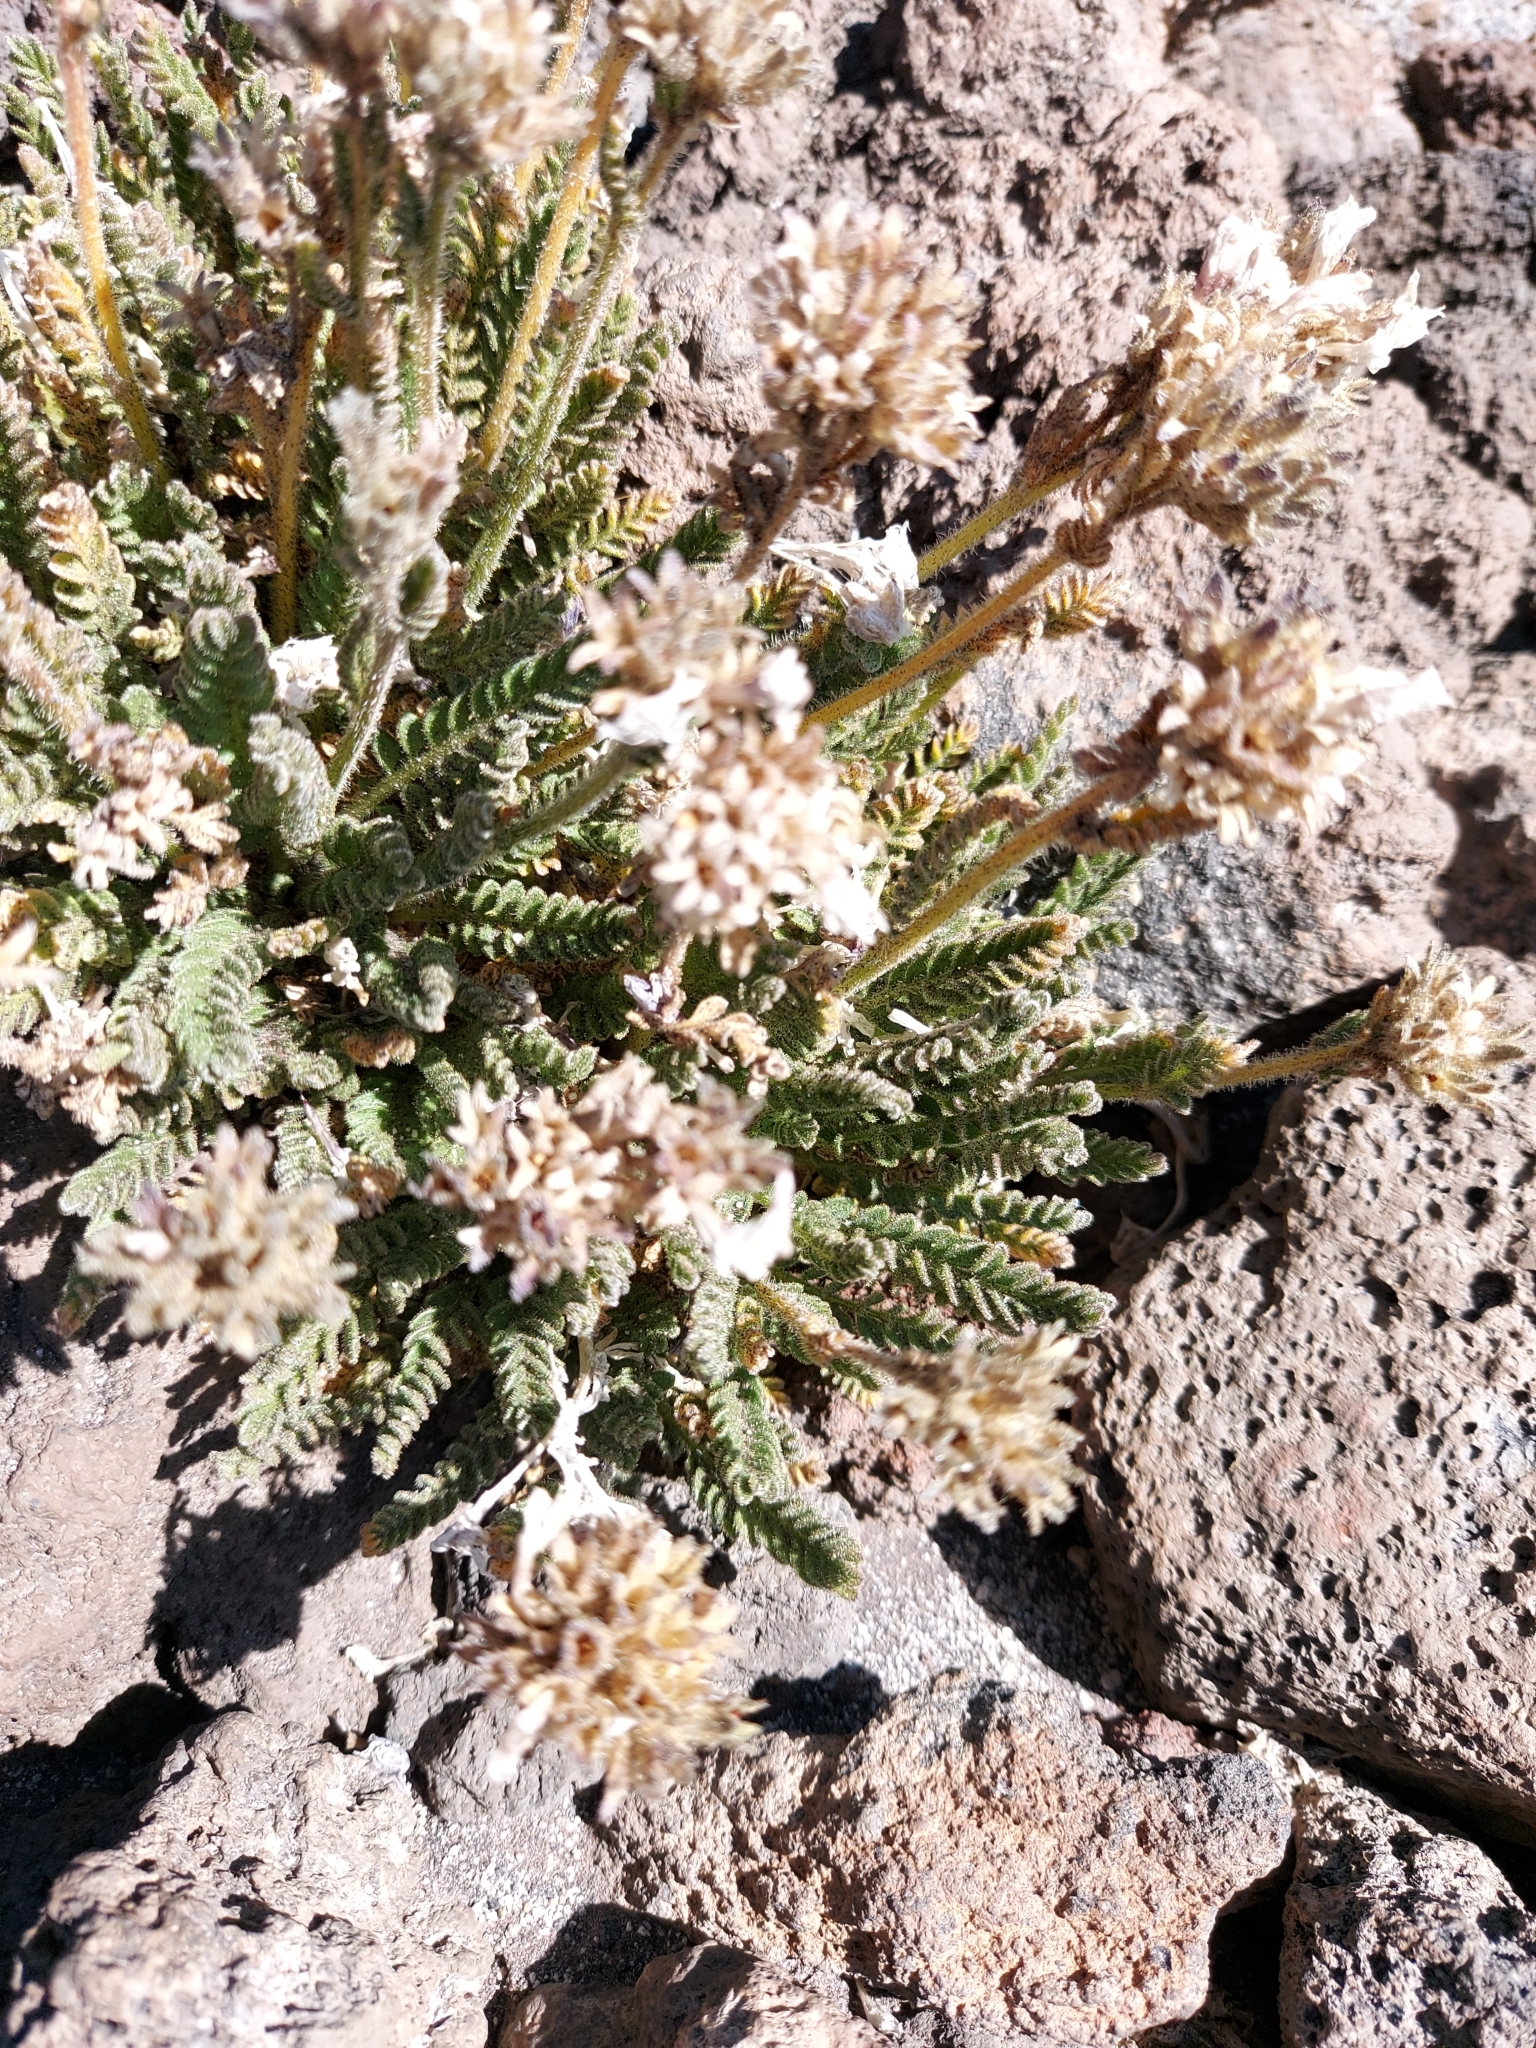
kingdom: Plantae
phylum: Tracheophyta
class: Magnoliopsida
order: Ericales
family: Polemoniaceae
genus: Polemonium
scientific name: Polemonium elegans
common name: Elegant jacob's-ladder
